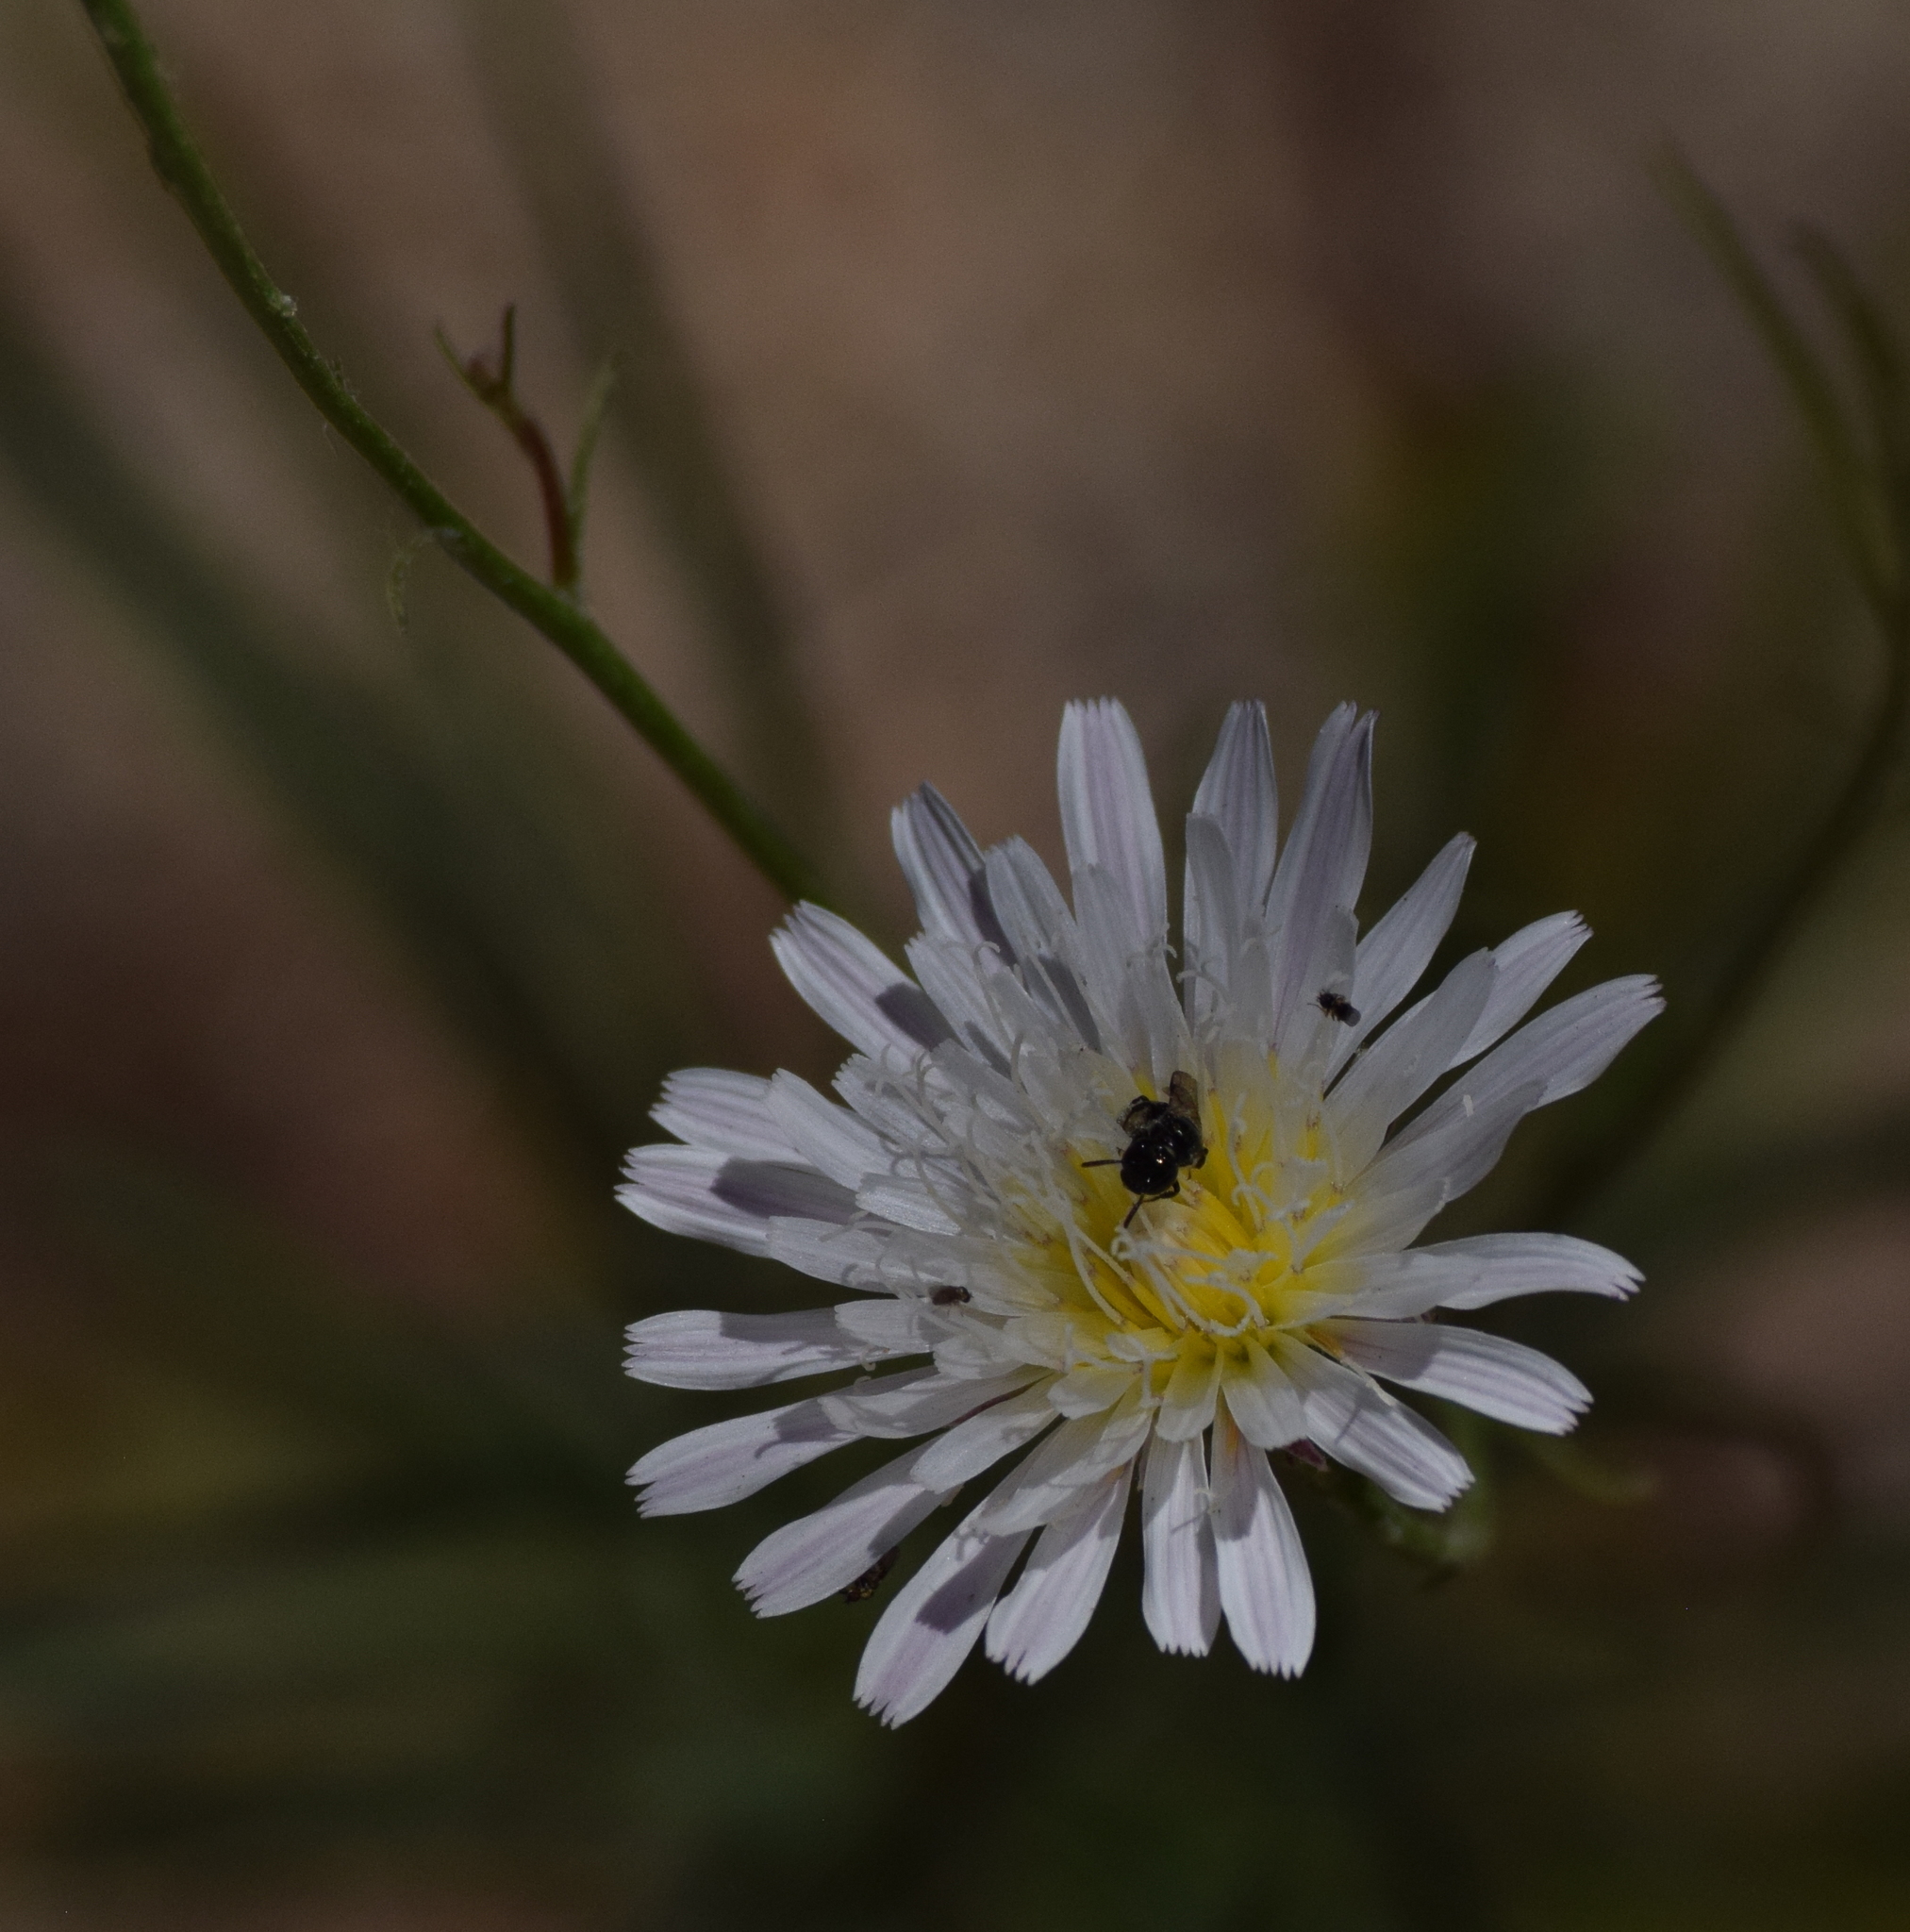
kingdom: Plantae
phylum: Tracheophyta
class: Magnoliopsida
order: Asterales
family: Asteraceae
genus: Malacothrix
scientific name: Malacothrix saxatilis
